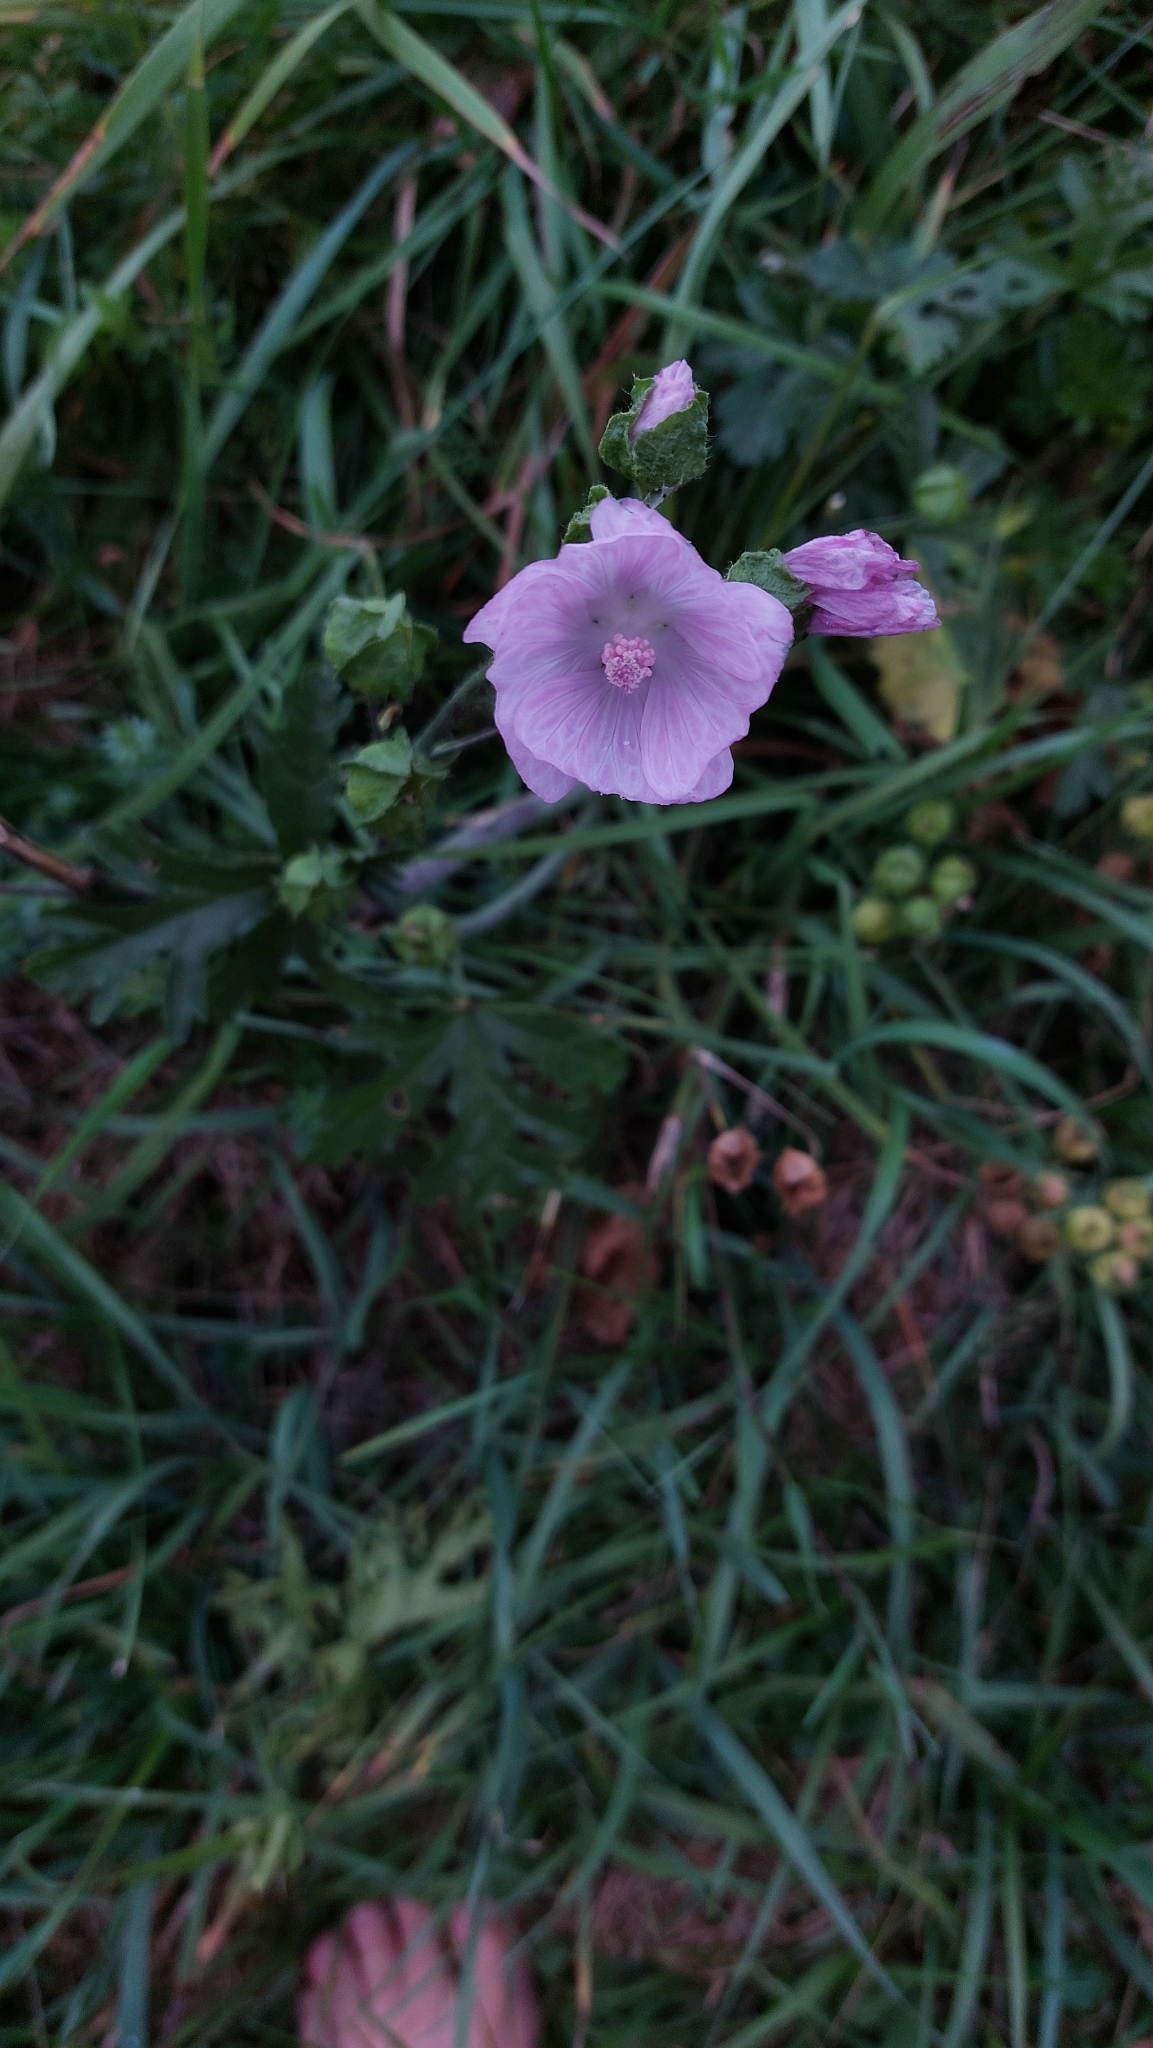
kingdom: Plantae
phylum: Tracheophyta
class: Magnoliopsida
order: Malvales
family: Malvaceae
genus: Malva
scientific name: Malva moschata
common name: Musk mallow
